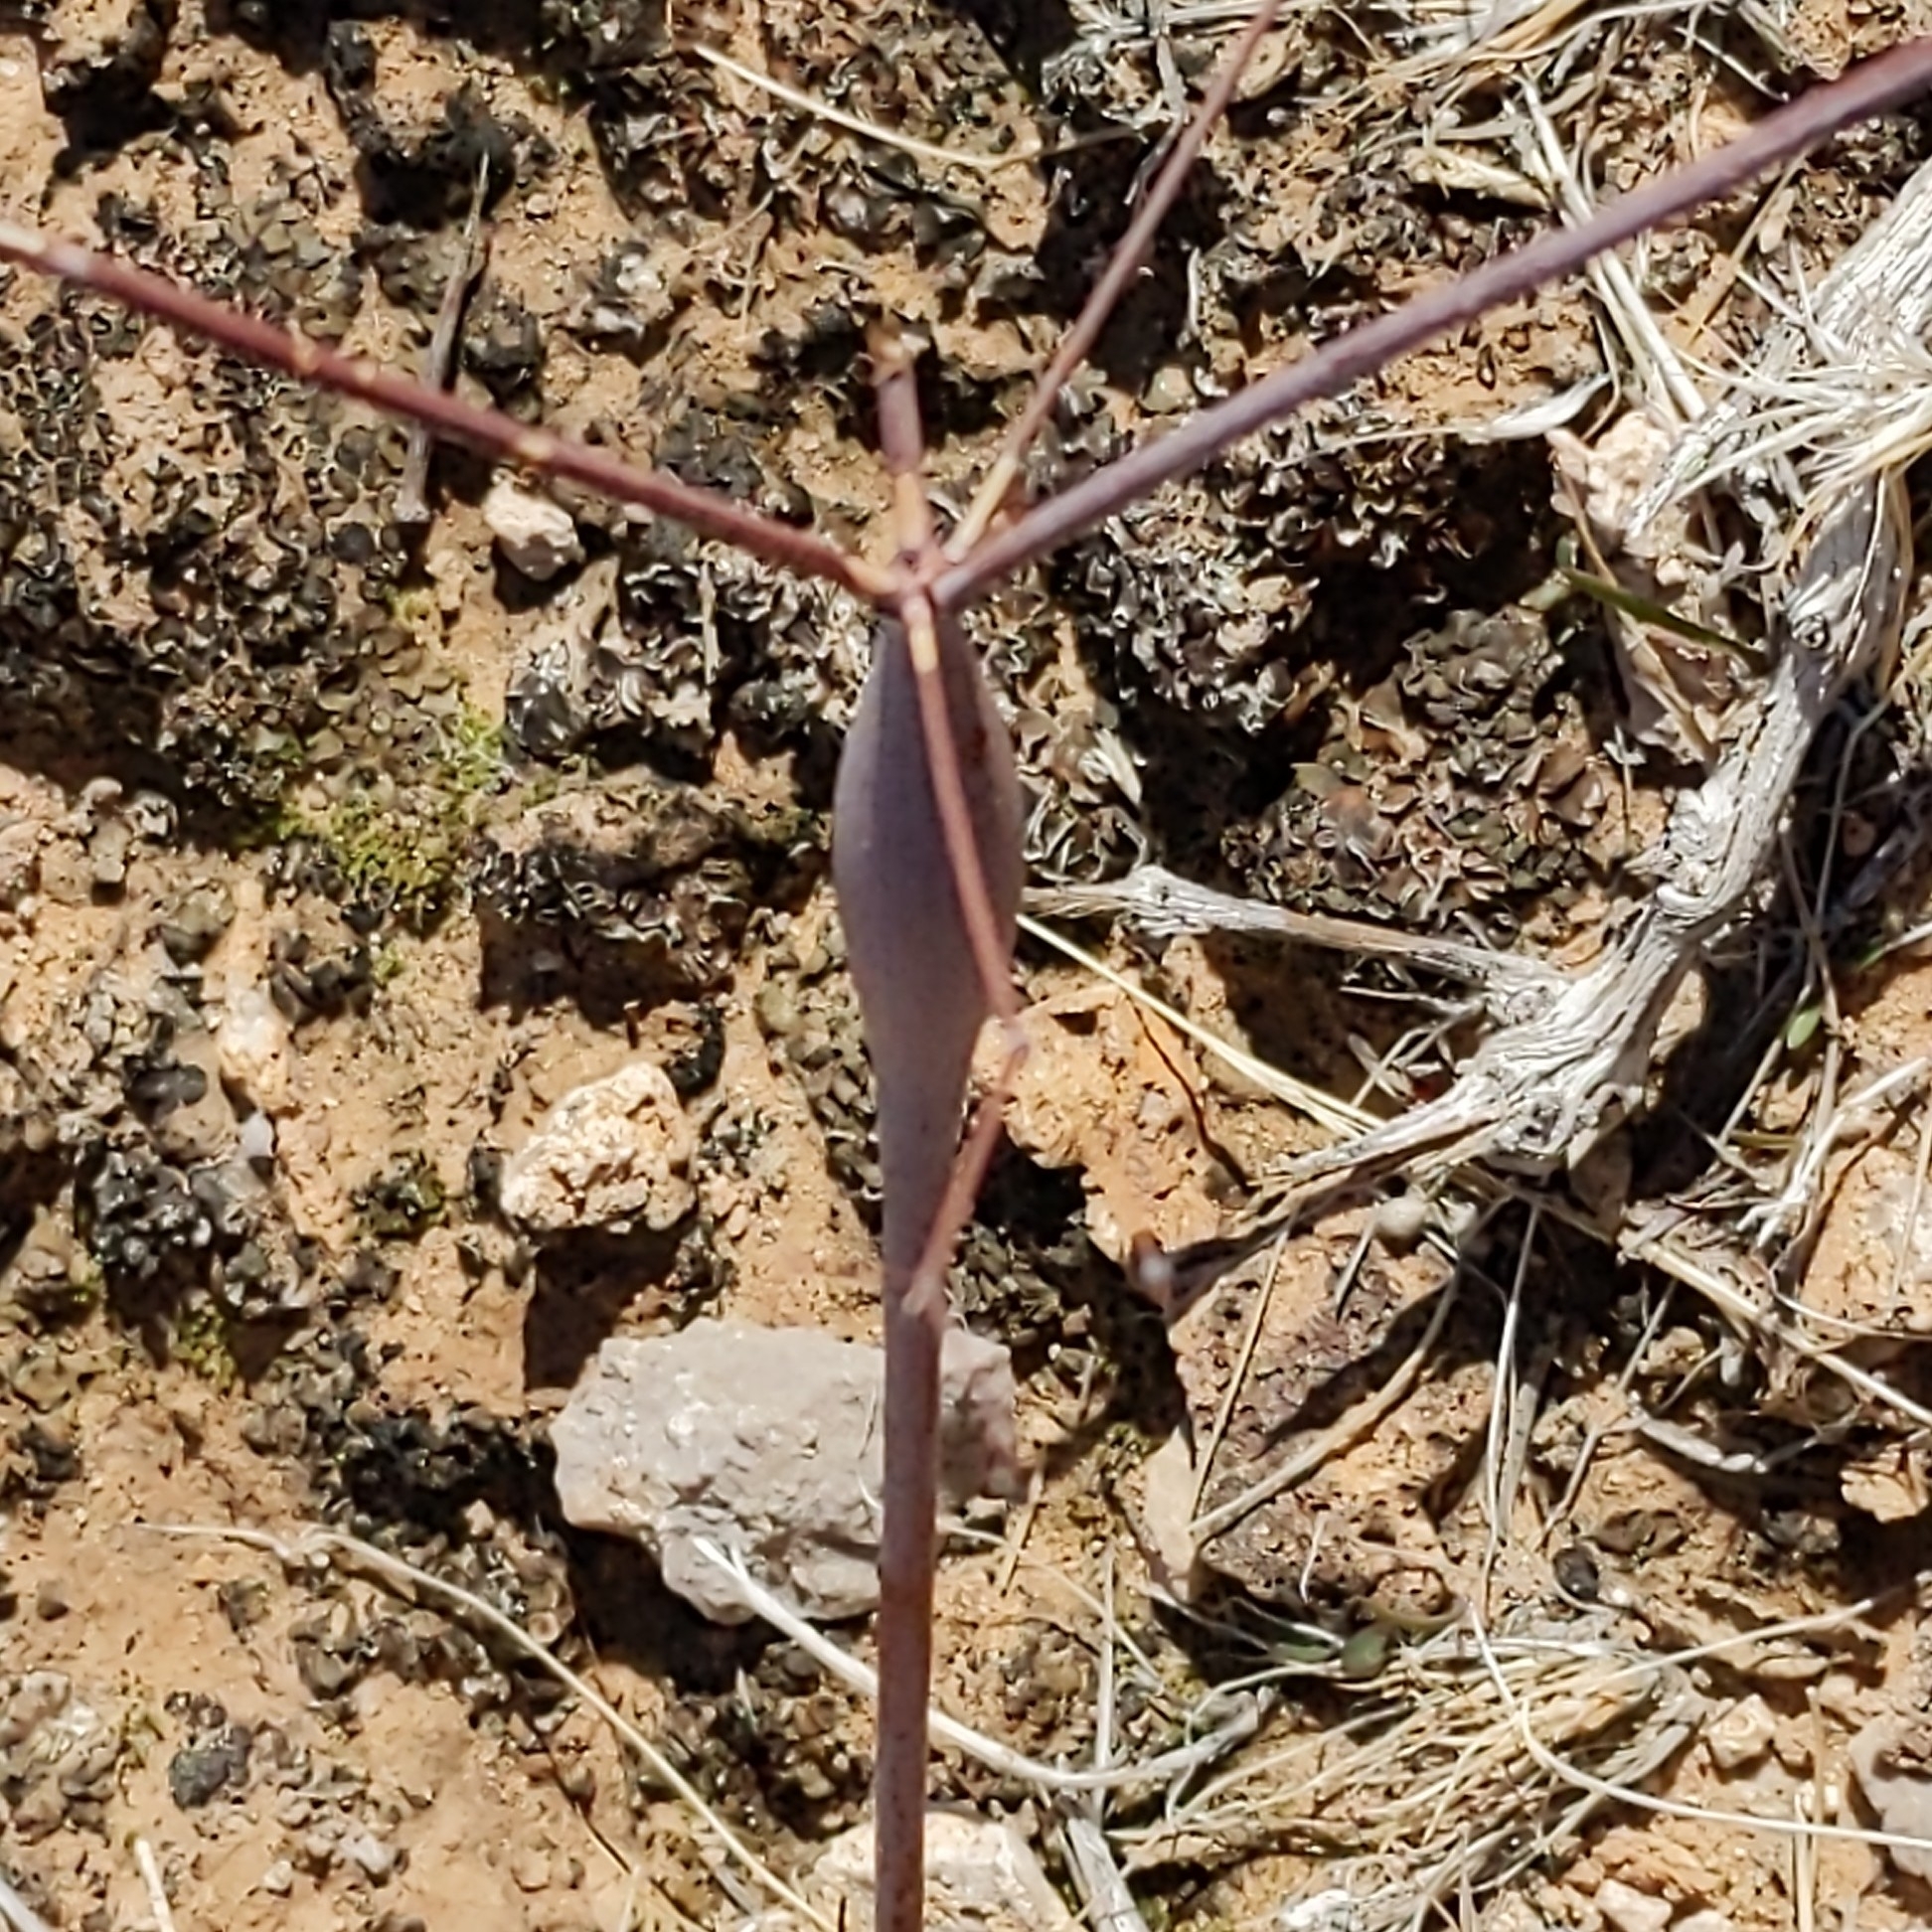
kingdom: Plantae
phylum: Tracheophyta
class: Magnoliopsida
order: Caryophyllales
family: Polygonaceae
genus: Eriogonum
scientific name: Eriogonum inflatum
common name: Desert trumpet
